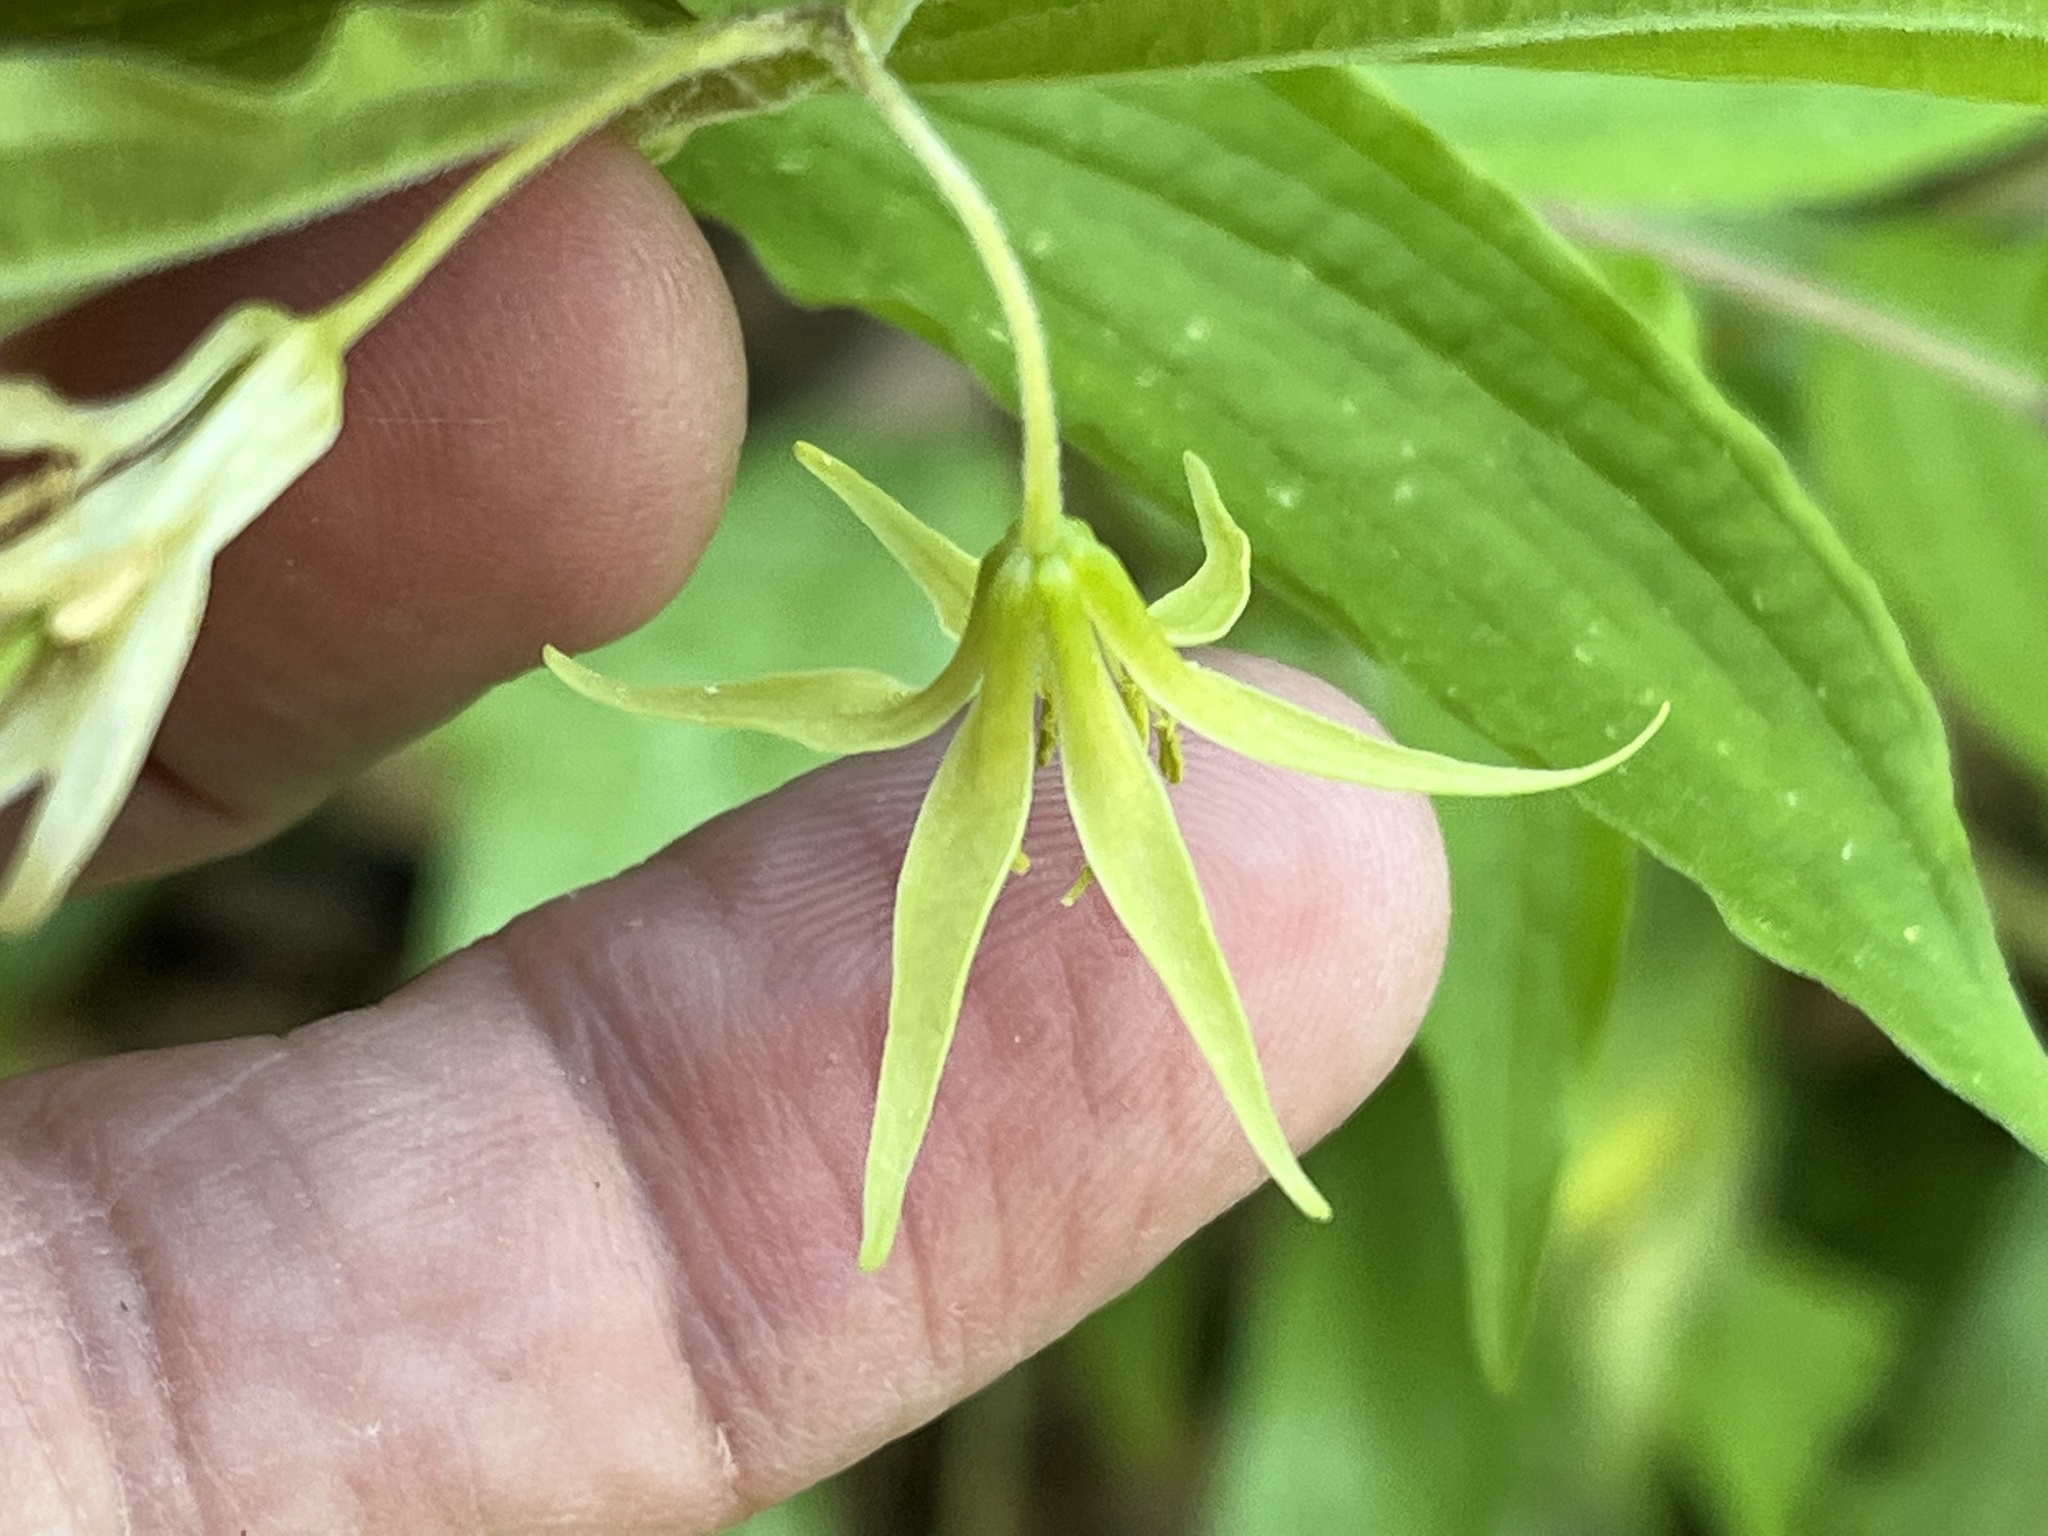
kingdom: Plantae
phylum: Tracheophyta
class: Liliopsida
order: Liliales
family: Liliaceae
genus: Prosartes
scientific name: Prosartes lanuginosa
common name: Hairy mandarin
